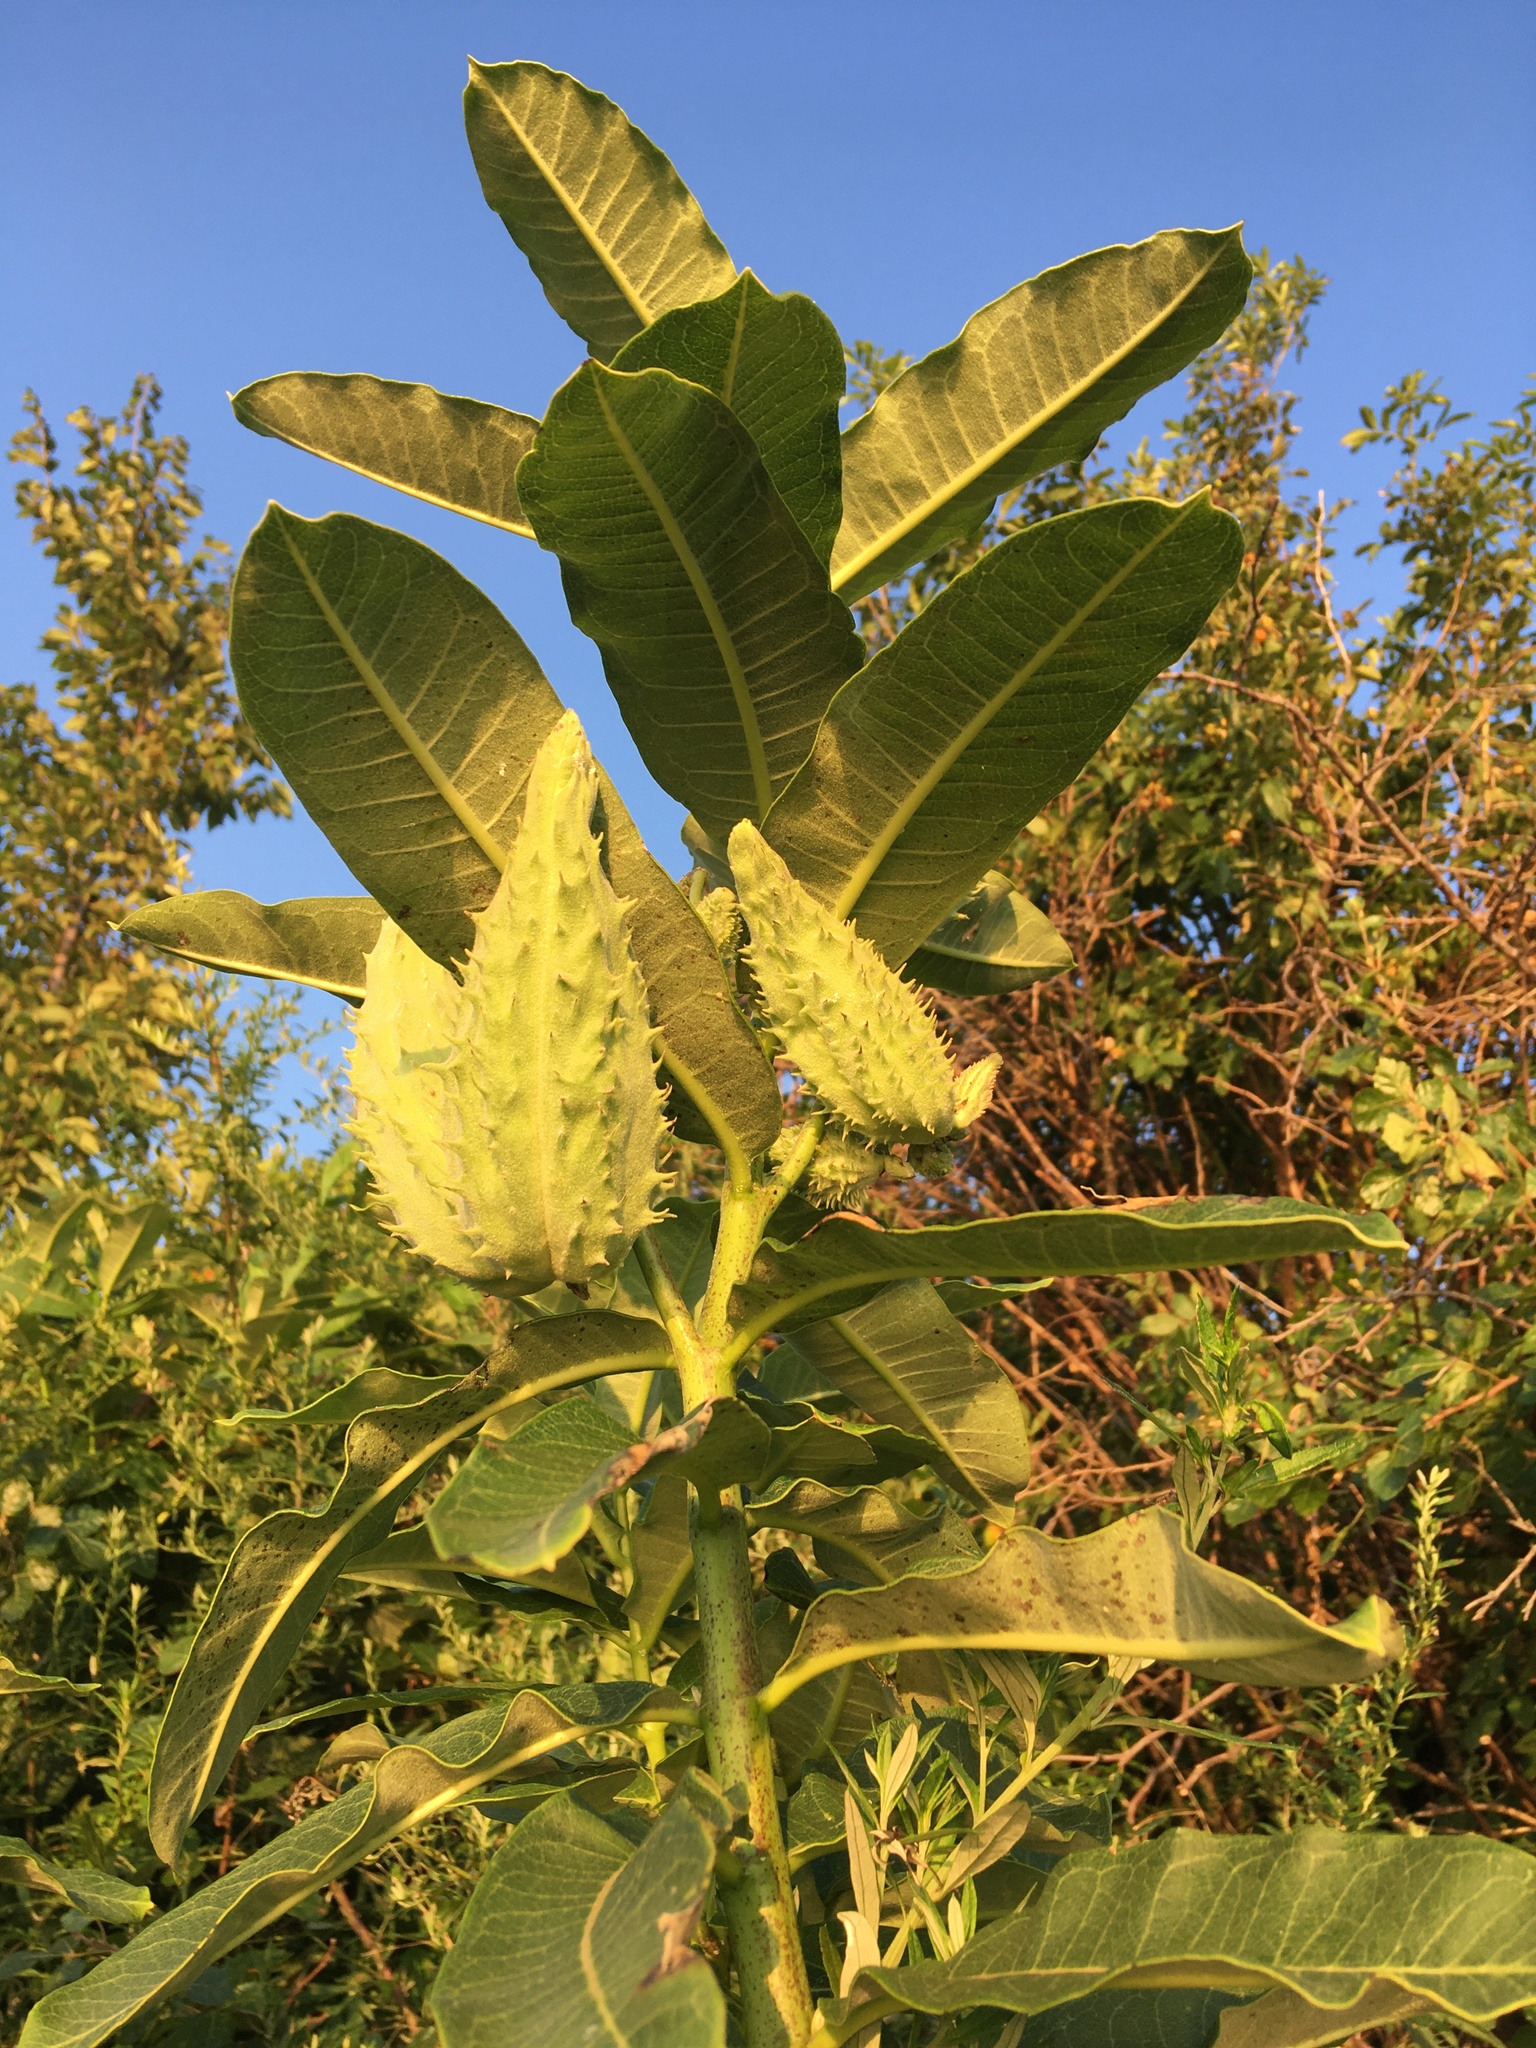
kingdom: Plantae
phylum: Tracheophyta
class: Magnoliopsida
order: Gentianales
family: Apocynaceae
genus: Asclepias
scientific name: Asclepias syriaca
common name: Common milkweed
